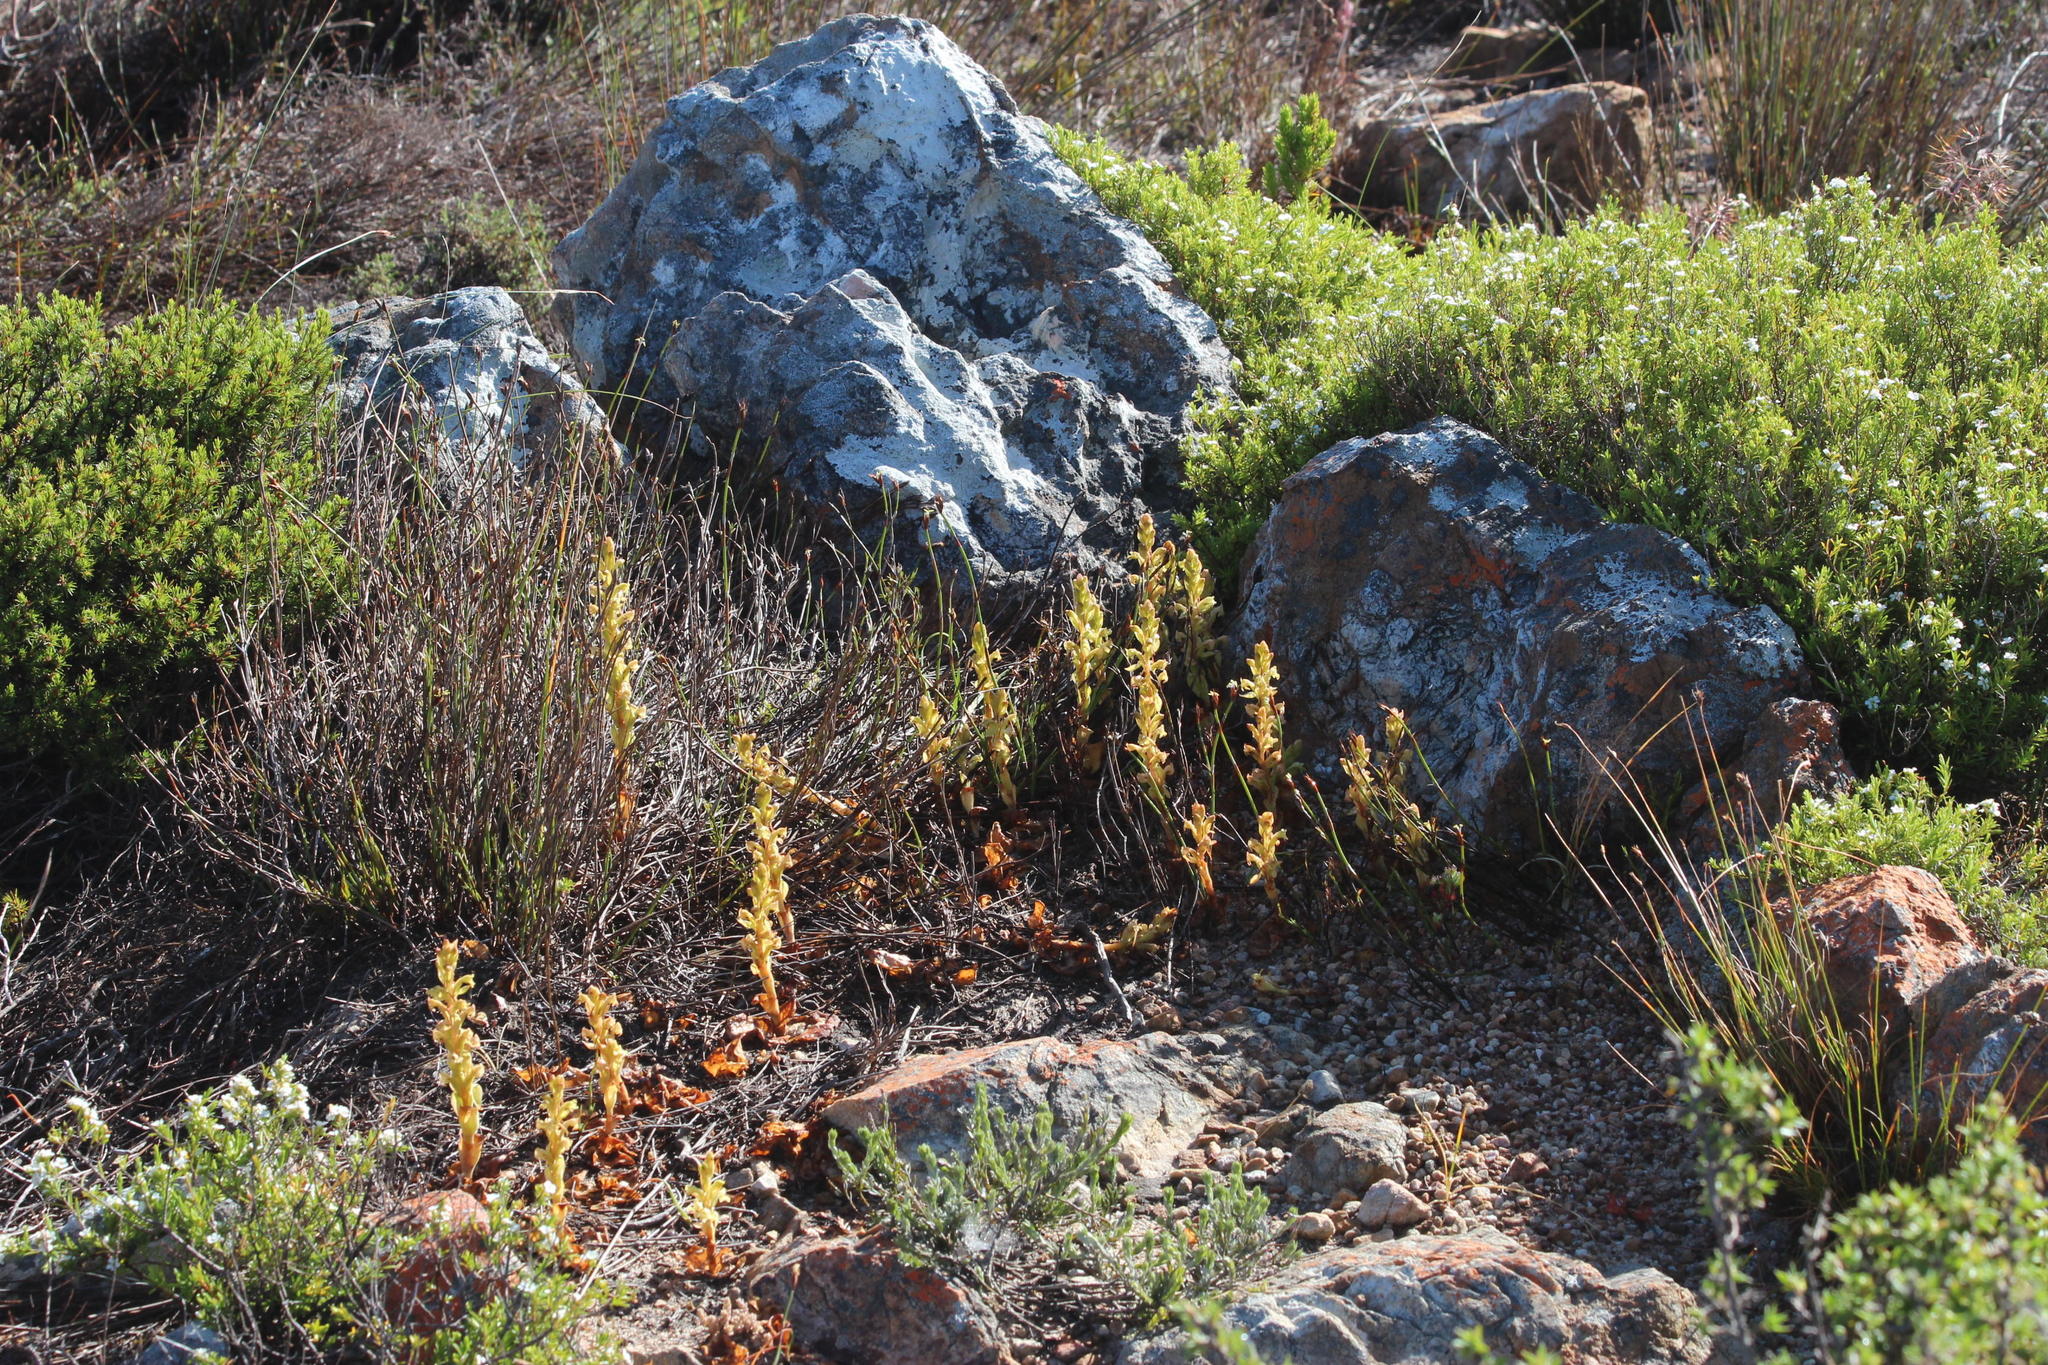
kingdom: Plantae
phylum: Tracheophyta
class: Liliopsida
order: Asparagales
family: Orchidaceae
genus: Satyrium
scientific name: Satyrium bicorne
